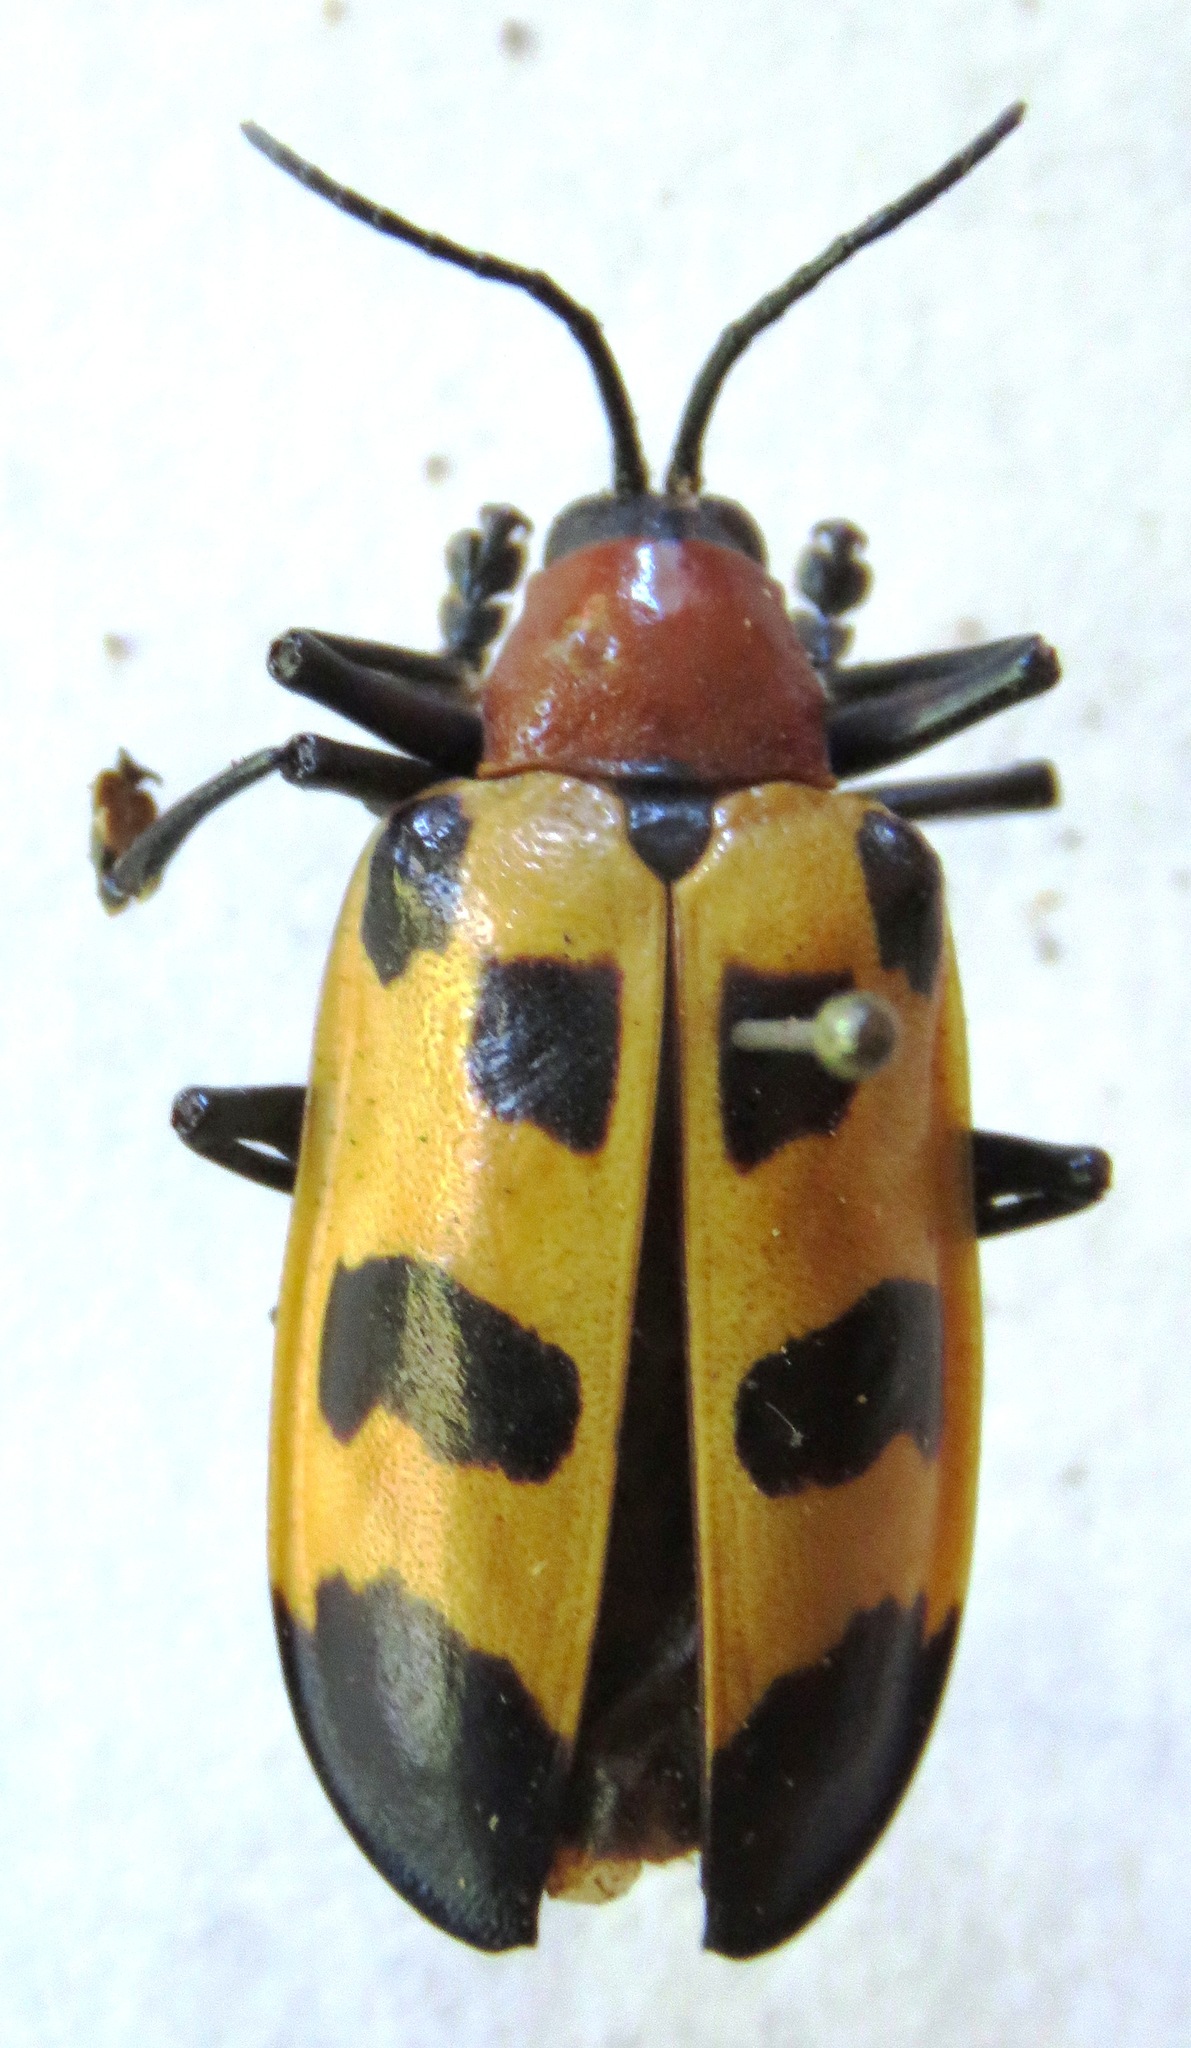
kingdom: Animalia
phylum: Arthropoda
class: Insecta
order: Coleoptera
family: Chrysomelidae
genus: Alurnus
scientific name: Alurnus ornatus
